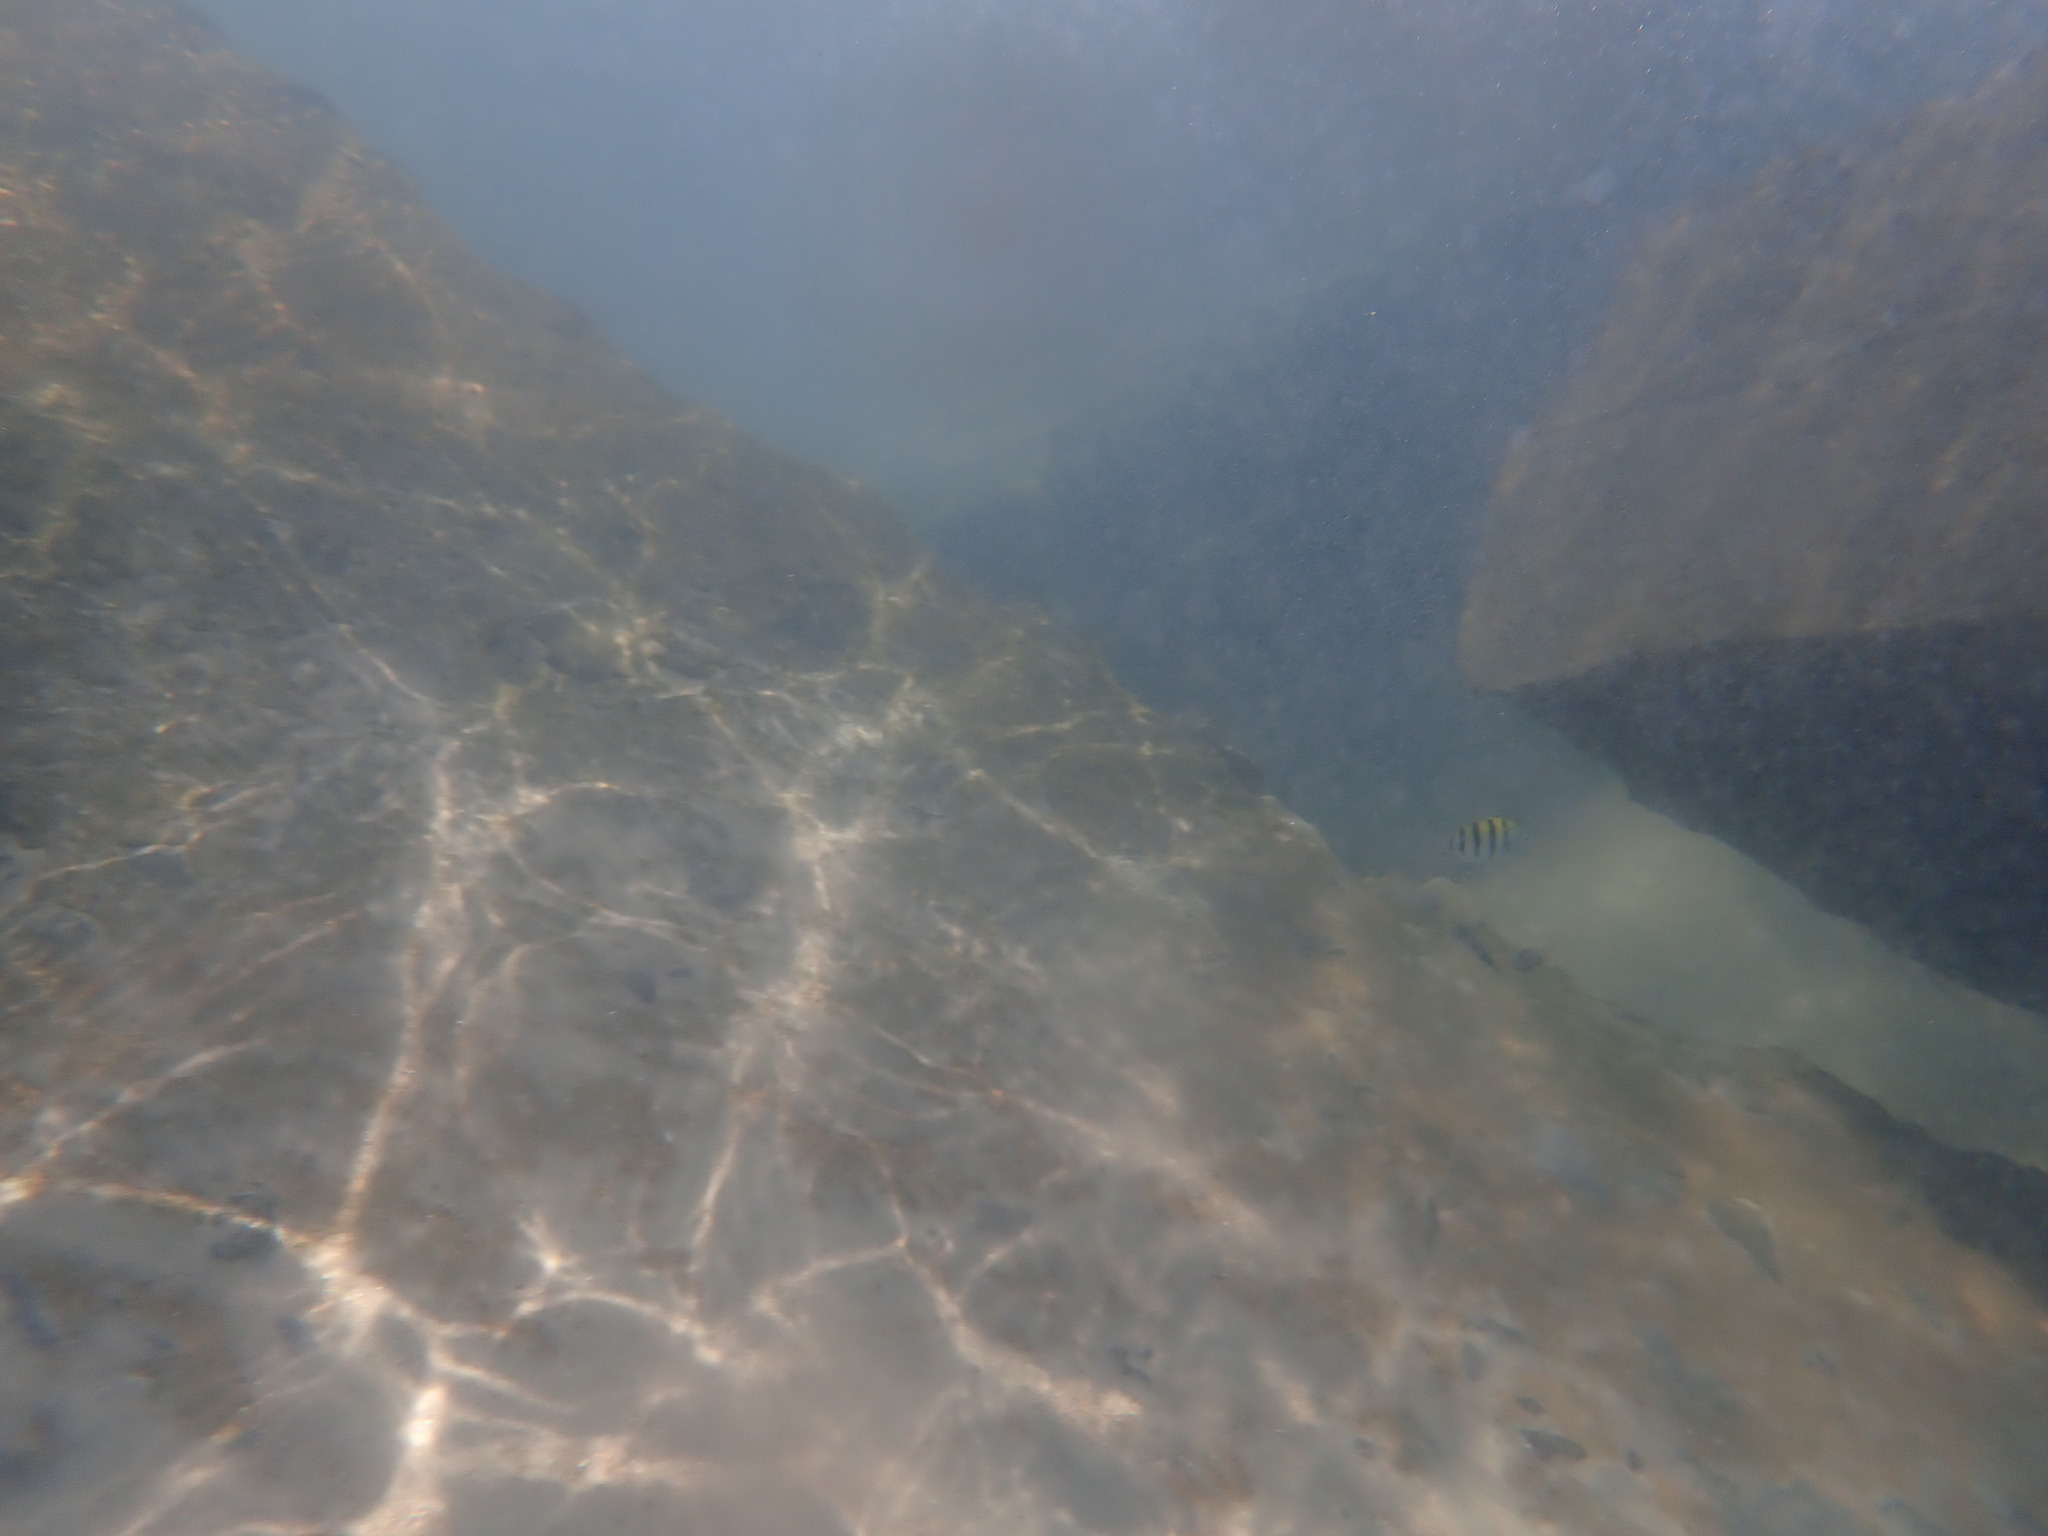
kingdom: Animalia
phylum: Chordata
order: Perciformes
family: Pomacentridae
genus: Abudefduf
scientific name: Abudefduf saxatilis
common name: Sergeant major
